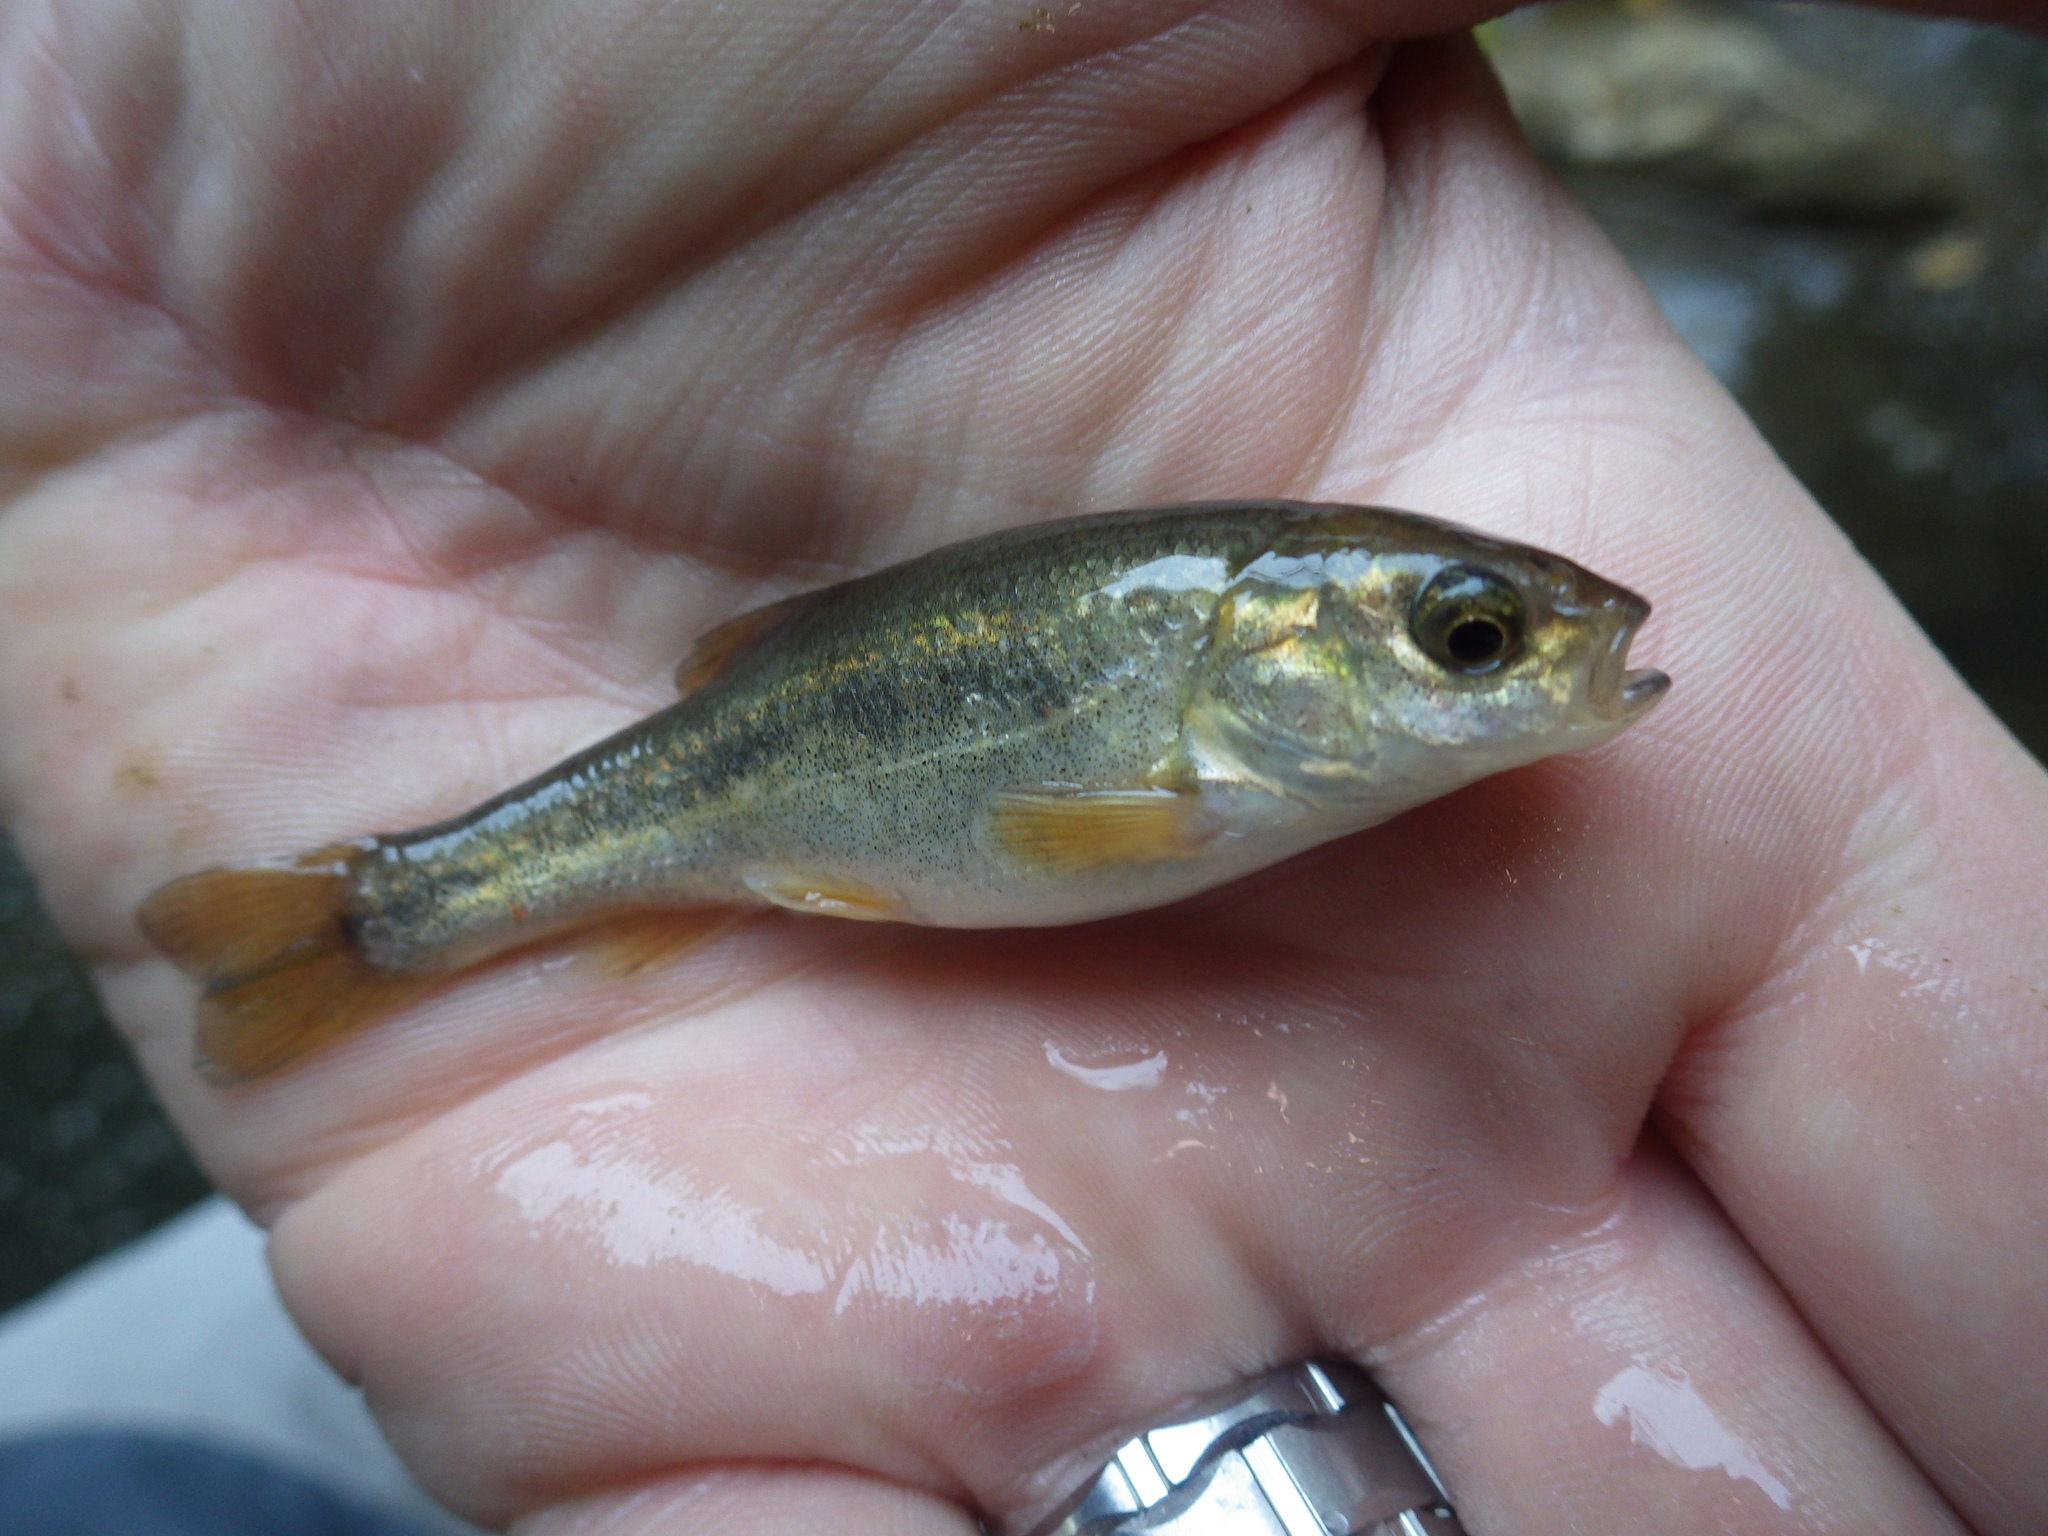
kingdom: Animalia
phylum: Chordata
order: Cypriniformes
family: Cyprinidae
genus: Gila
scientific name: Gila orcuttii
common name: Arroyo chub
